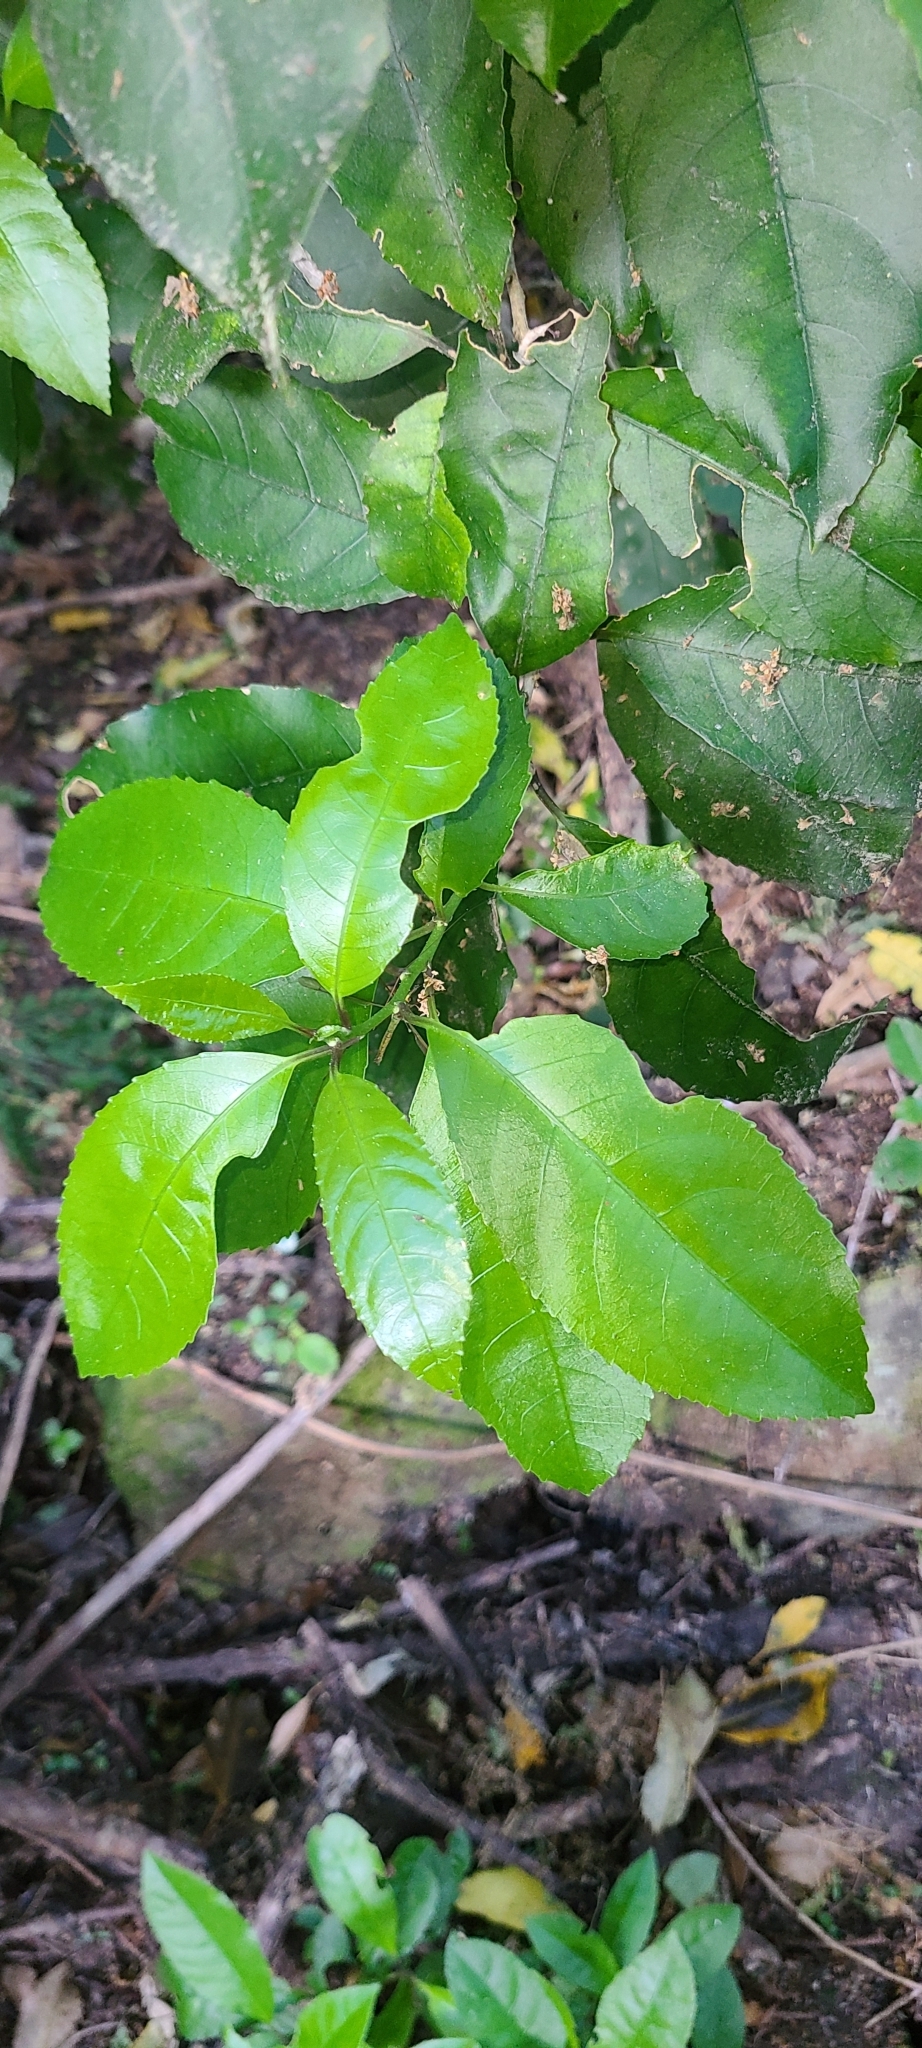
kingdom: Plantae
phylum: Tracheophyta
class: Magnoliopsida
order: Malpighiales
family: Violaceae
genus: Melicytus
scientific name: Melicytus ramiflorus
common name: Mahoe
